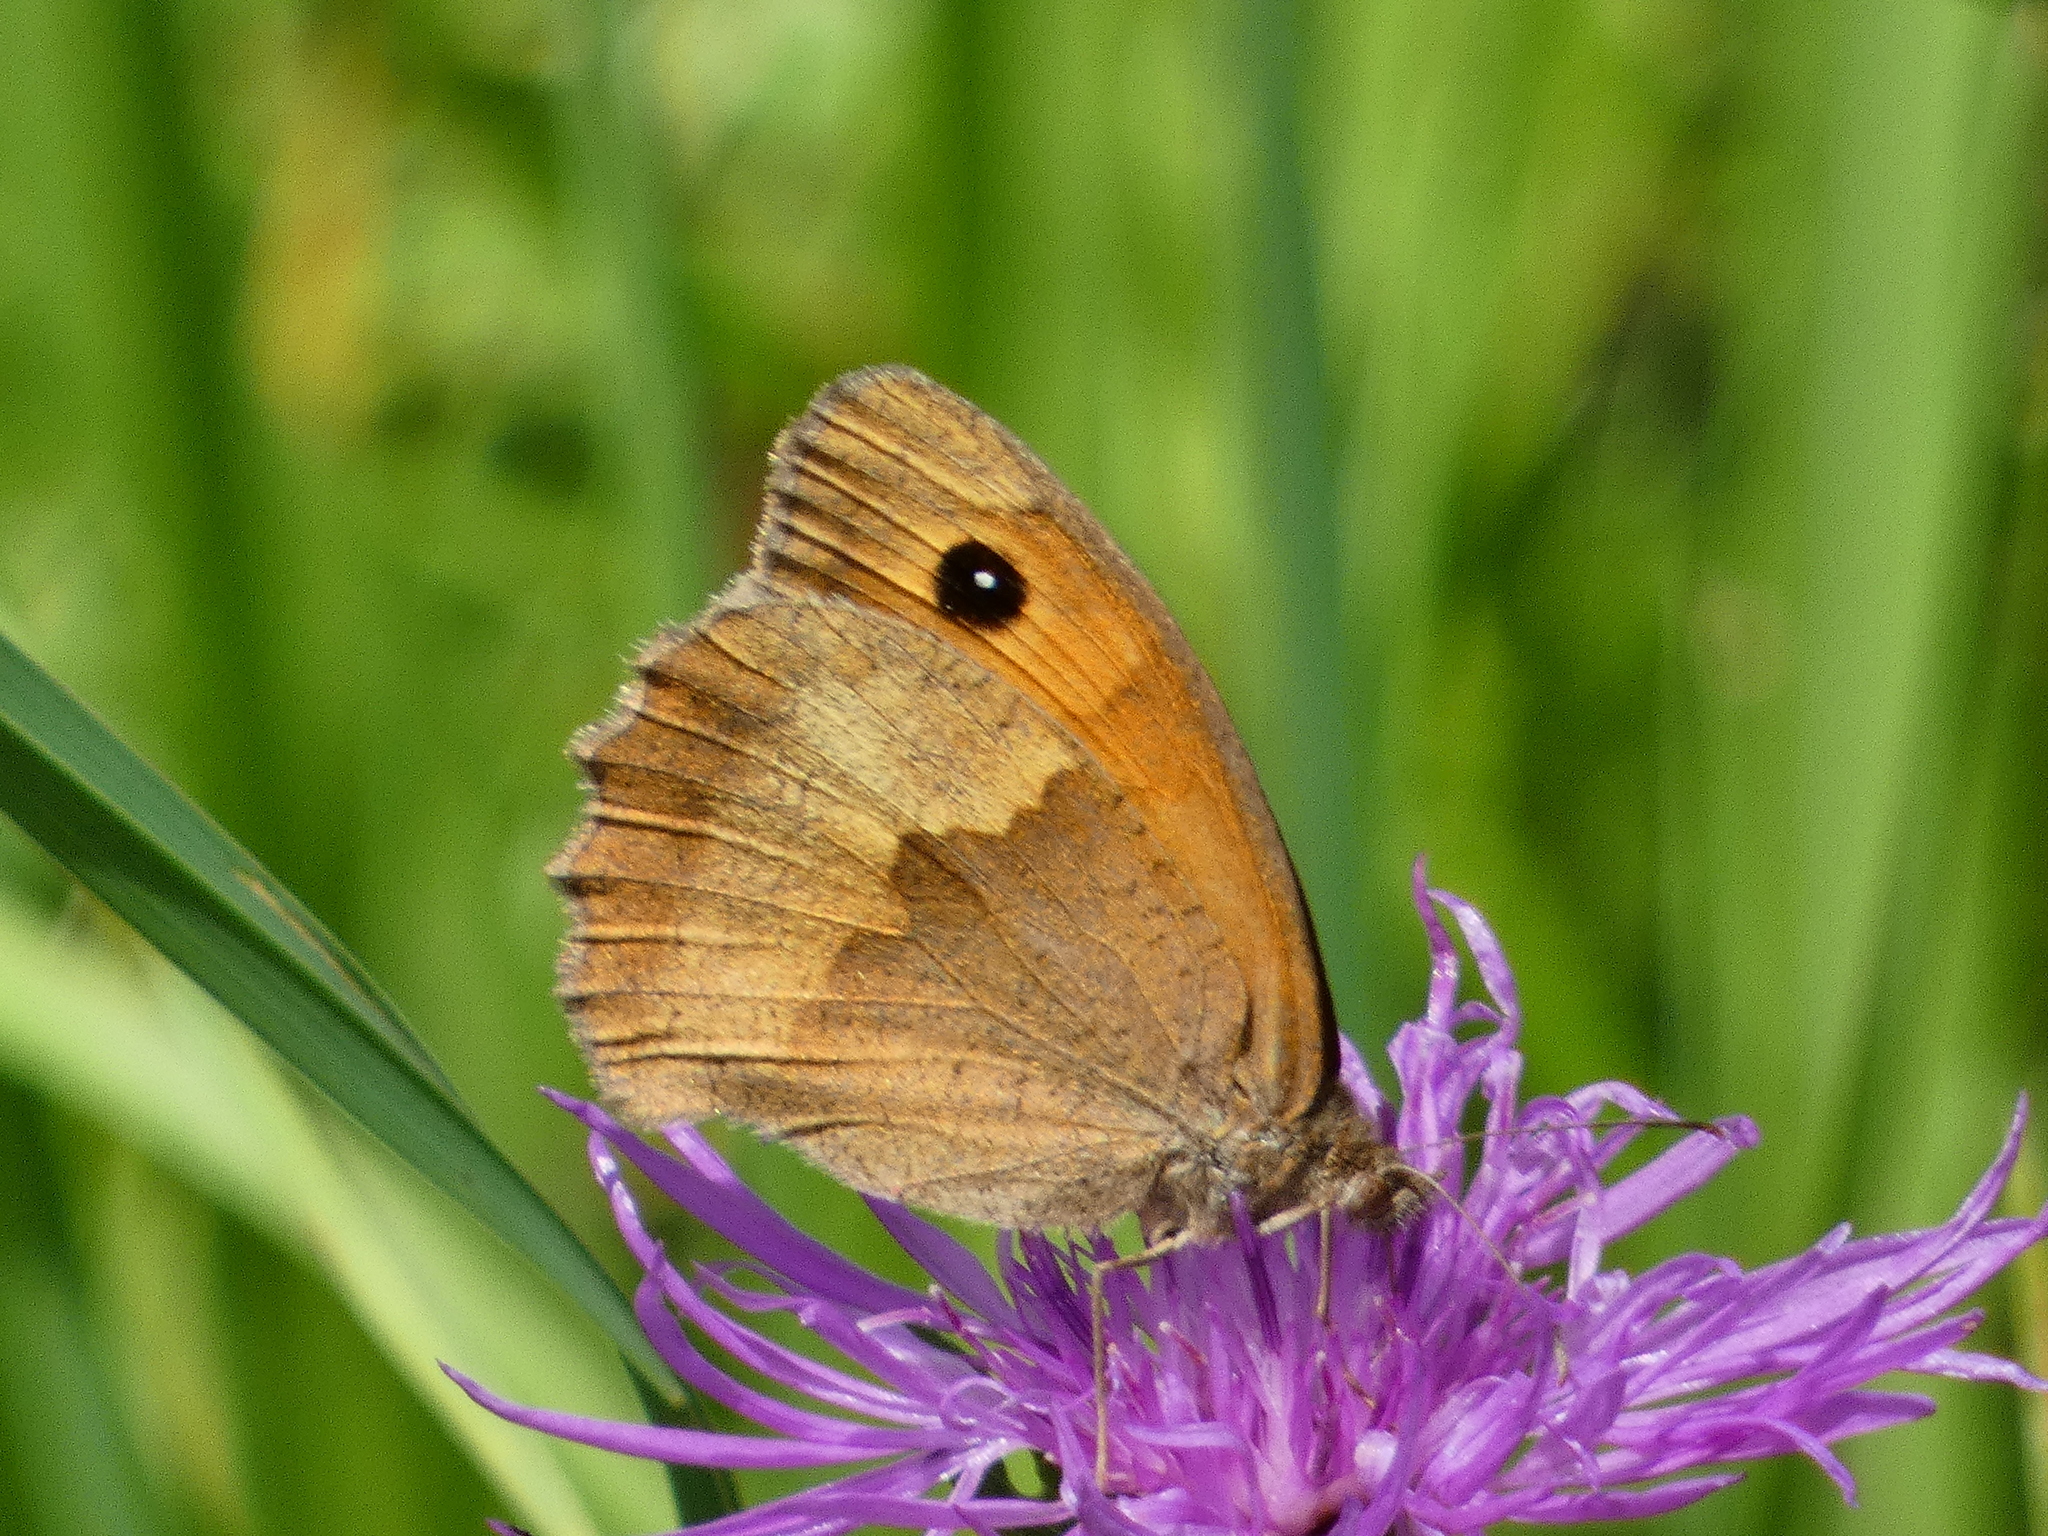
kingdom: Animalia
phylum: Arthropoda
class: Insecta
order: Lepidoptera
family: Nymphalidae
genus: Maniola
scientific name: Maniola jurtina
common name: Meadow brown
